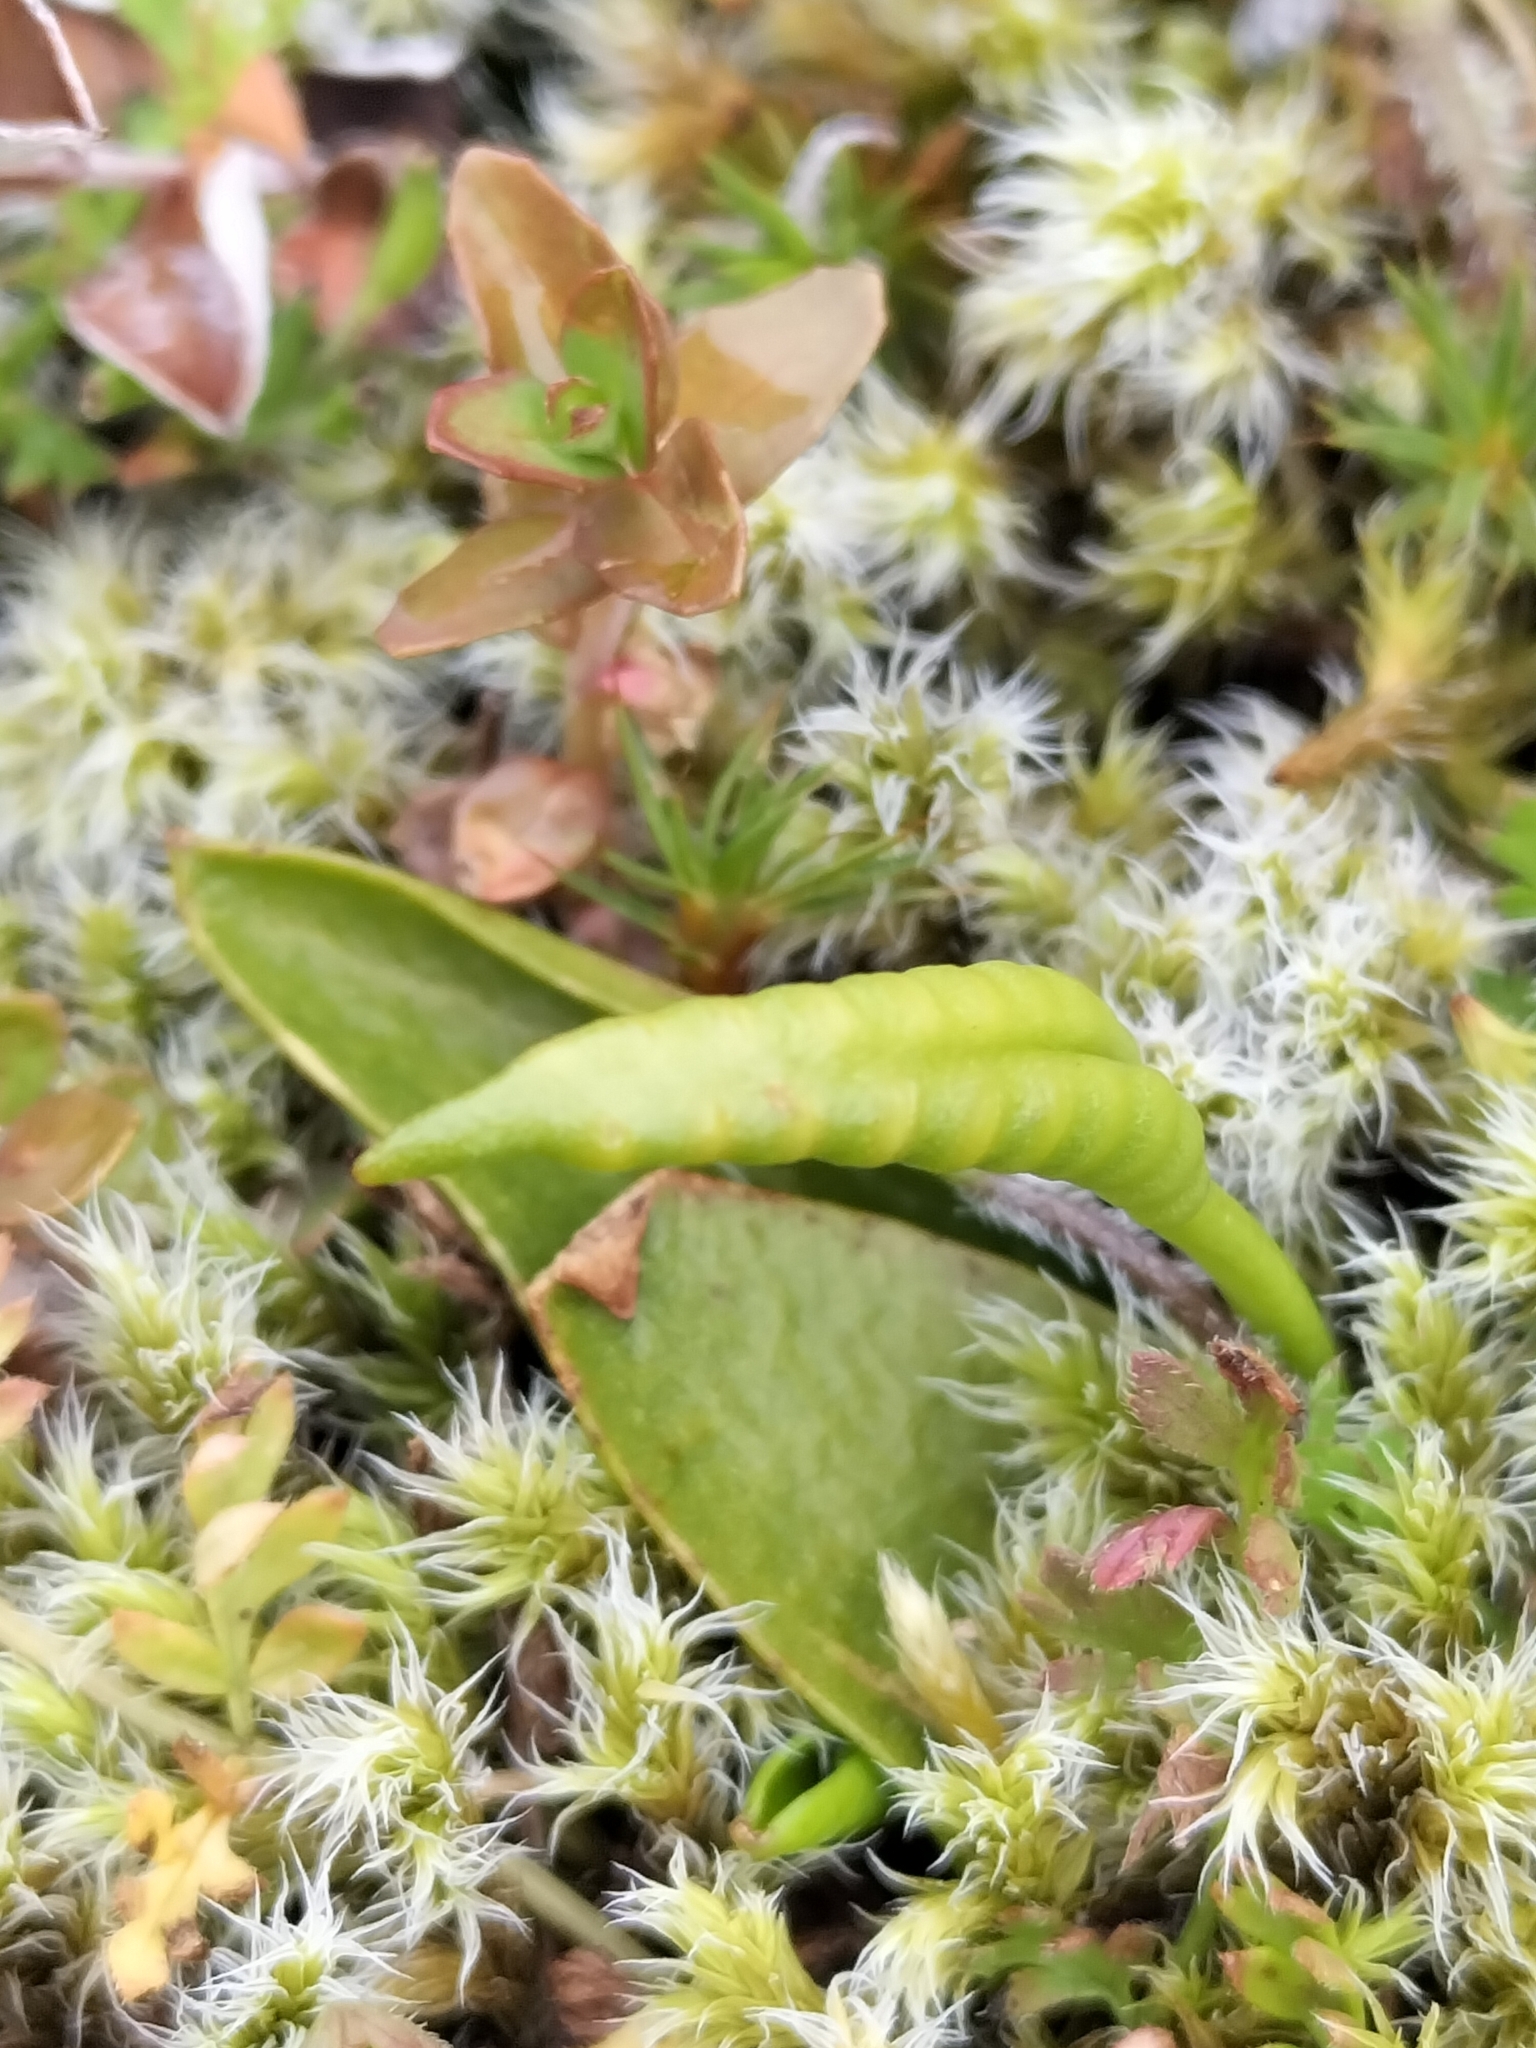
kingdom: Plantae
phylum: Tracheophyta
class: Polypodiopsida
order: Ophioglossales
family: Ophioglossaceae
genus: Ophioglossum
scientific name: Ophioglossum coriaceum
